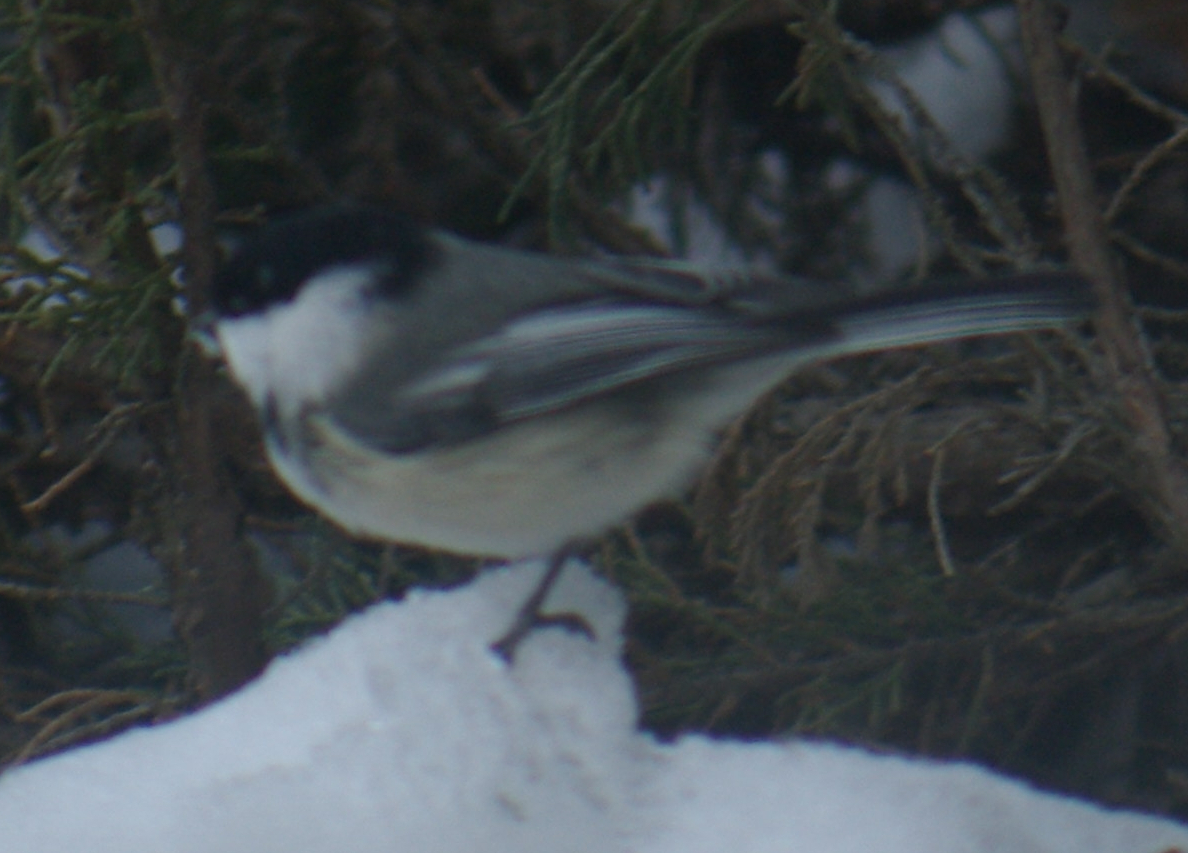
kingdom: Animalia
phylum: Chordata
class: Aves
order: Passeriformes
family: Paridae
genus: Poecile
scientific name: Poecile atricapillus
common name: Black-capped chickadee
